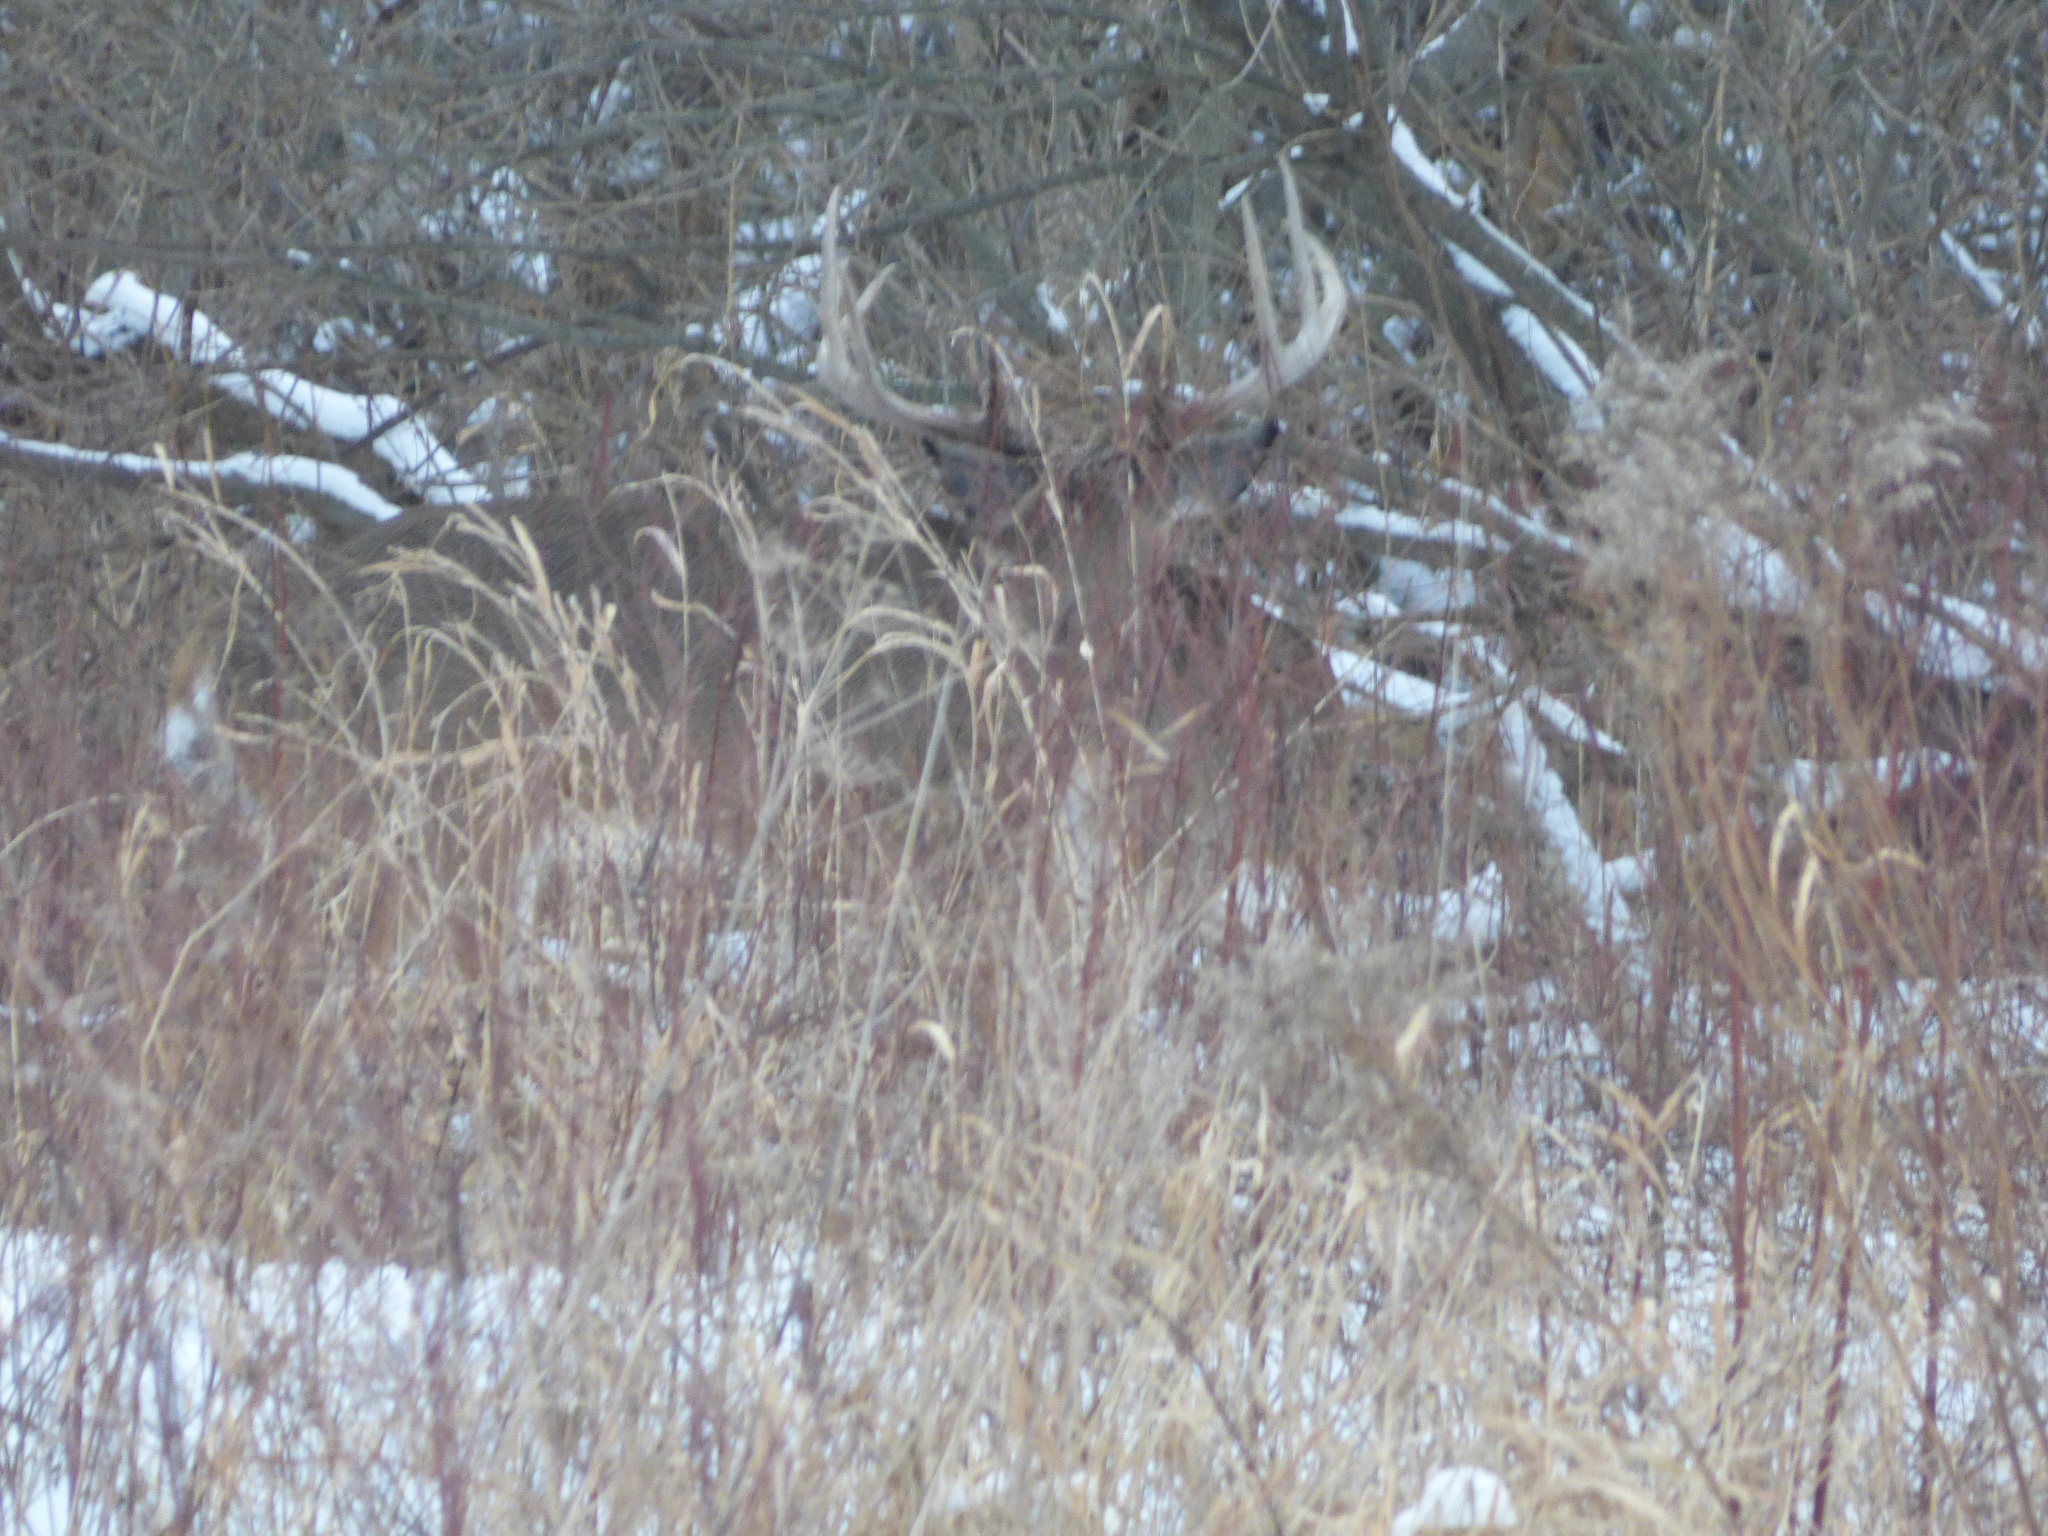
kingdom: Animalia
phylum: Chordata
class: Mammalia
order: Artiodactyla
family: Cervidae
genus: Odocoileus
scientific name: Odocoileus virginianus
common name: White-tailed deer
